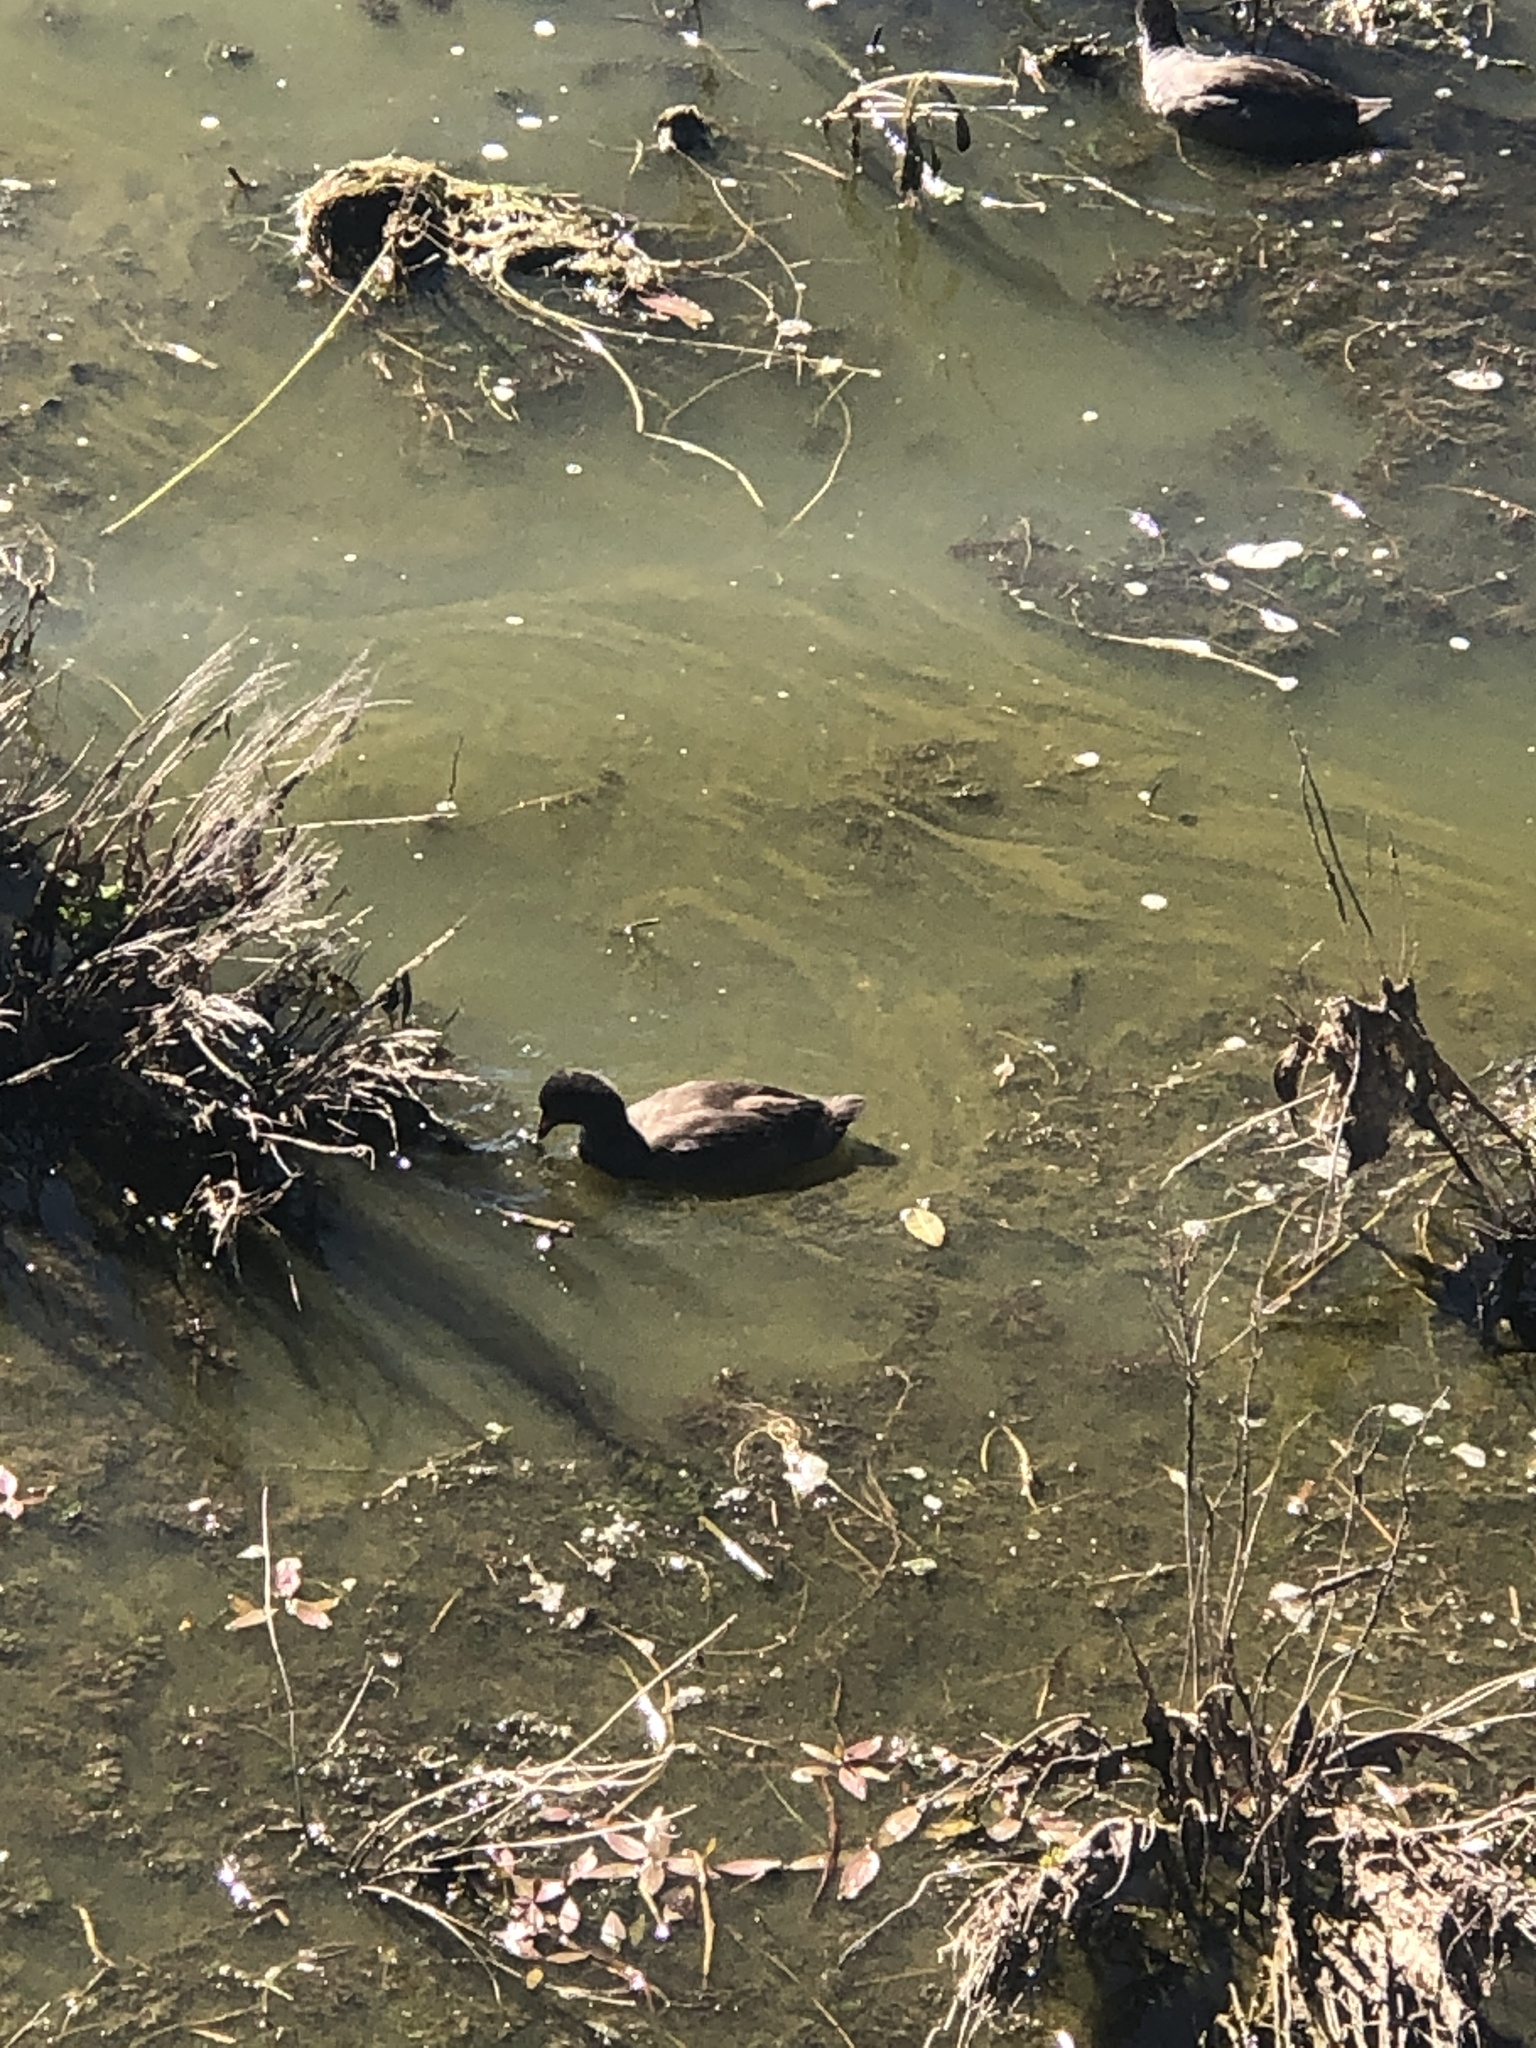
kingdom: Animalia
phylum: Chordata
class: Aves
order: Gruiformes
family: Rallidae
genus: Fulica
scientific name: Fulica americana
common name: American coot
